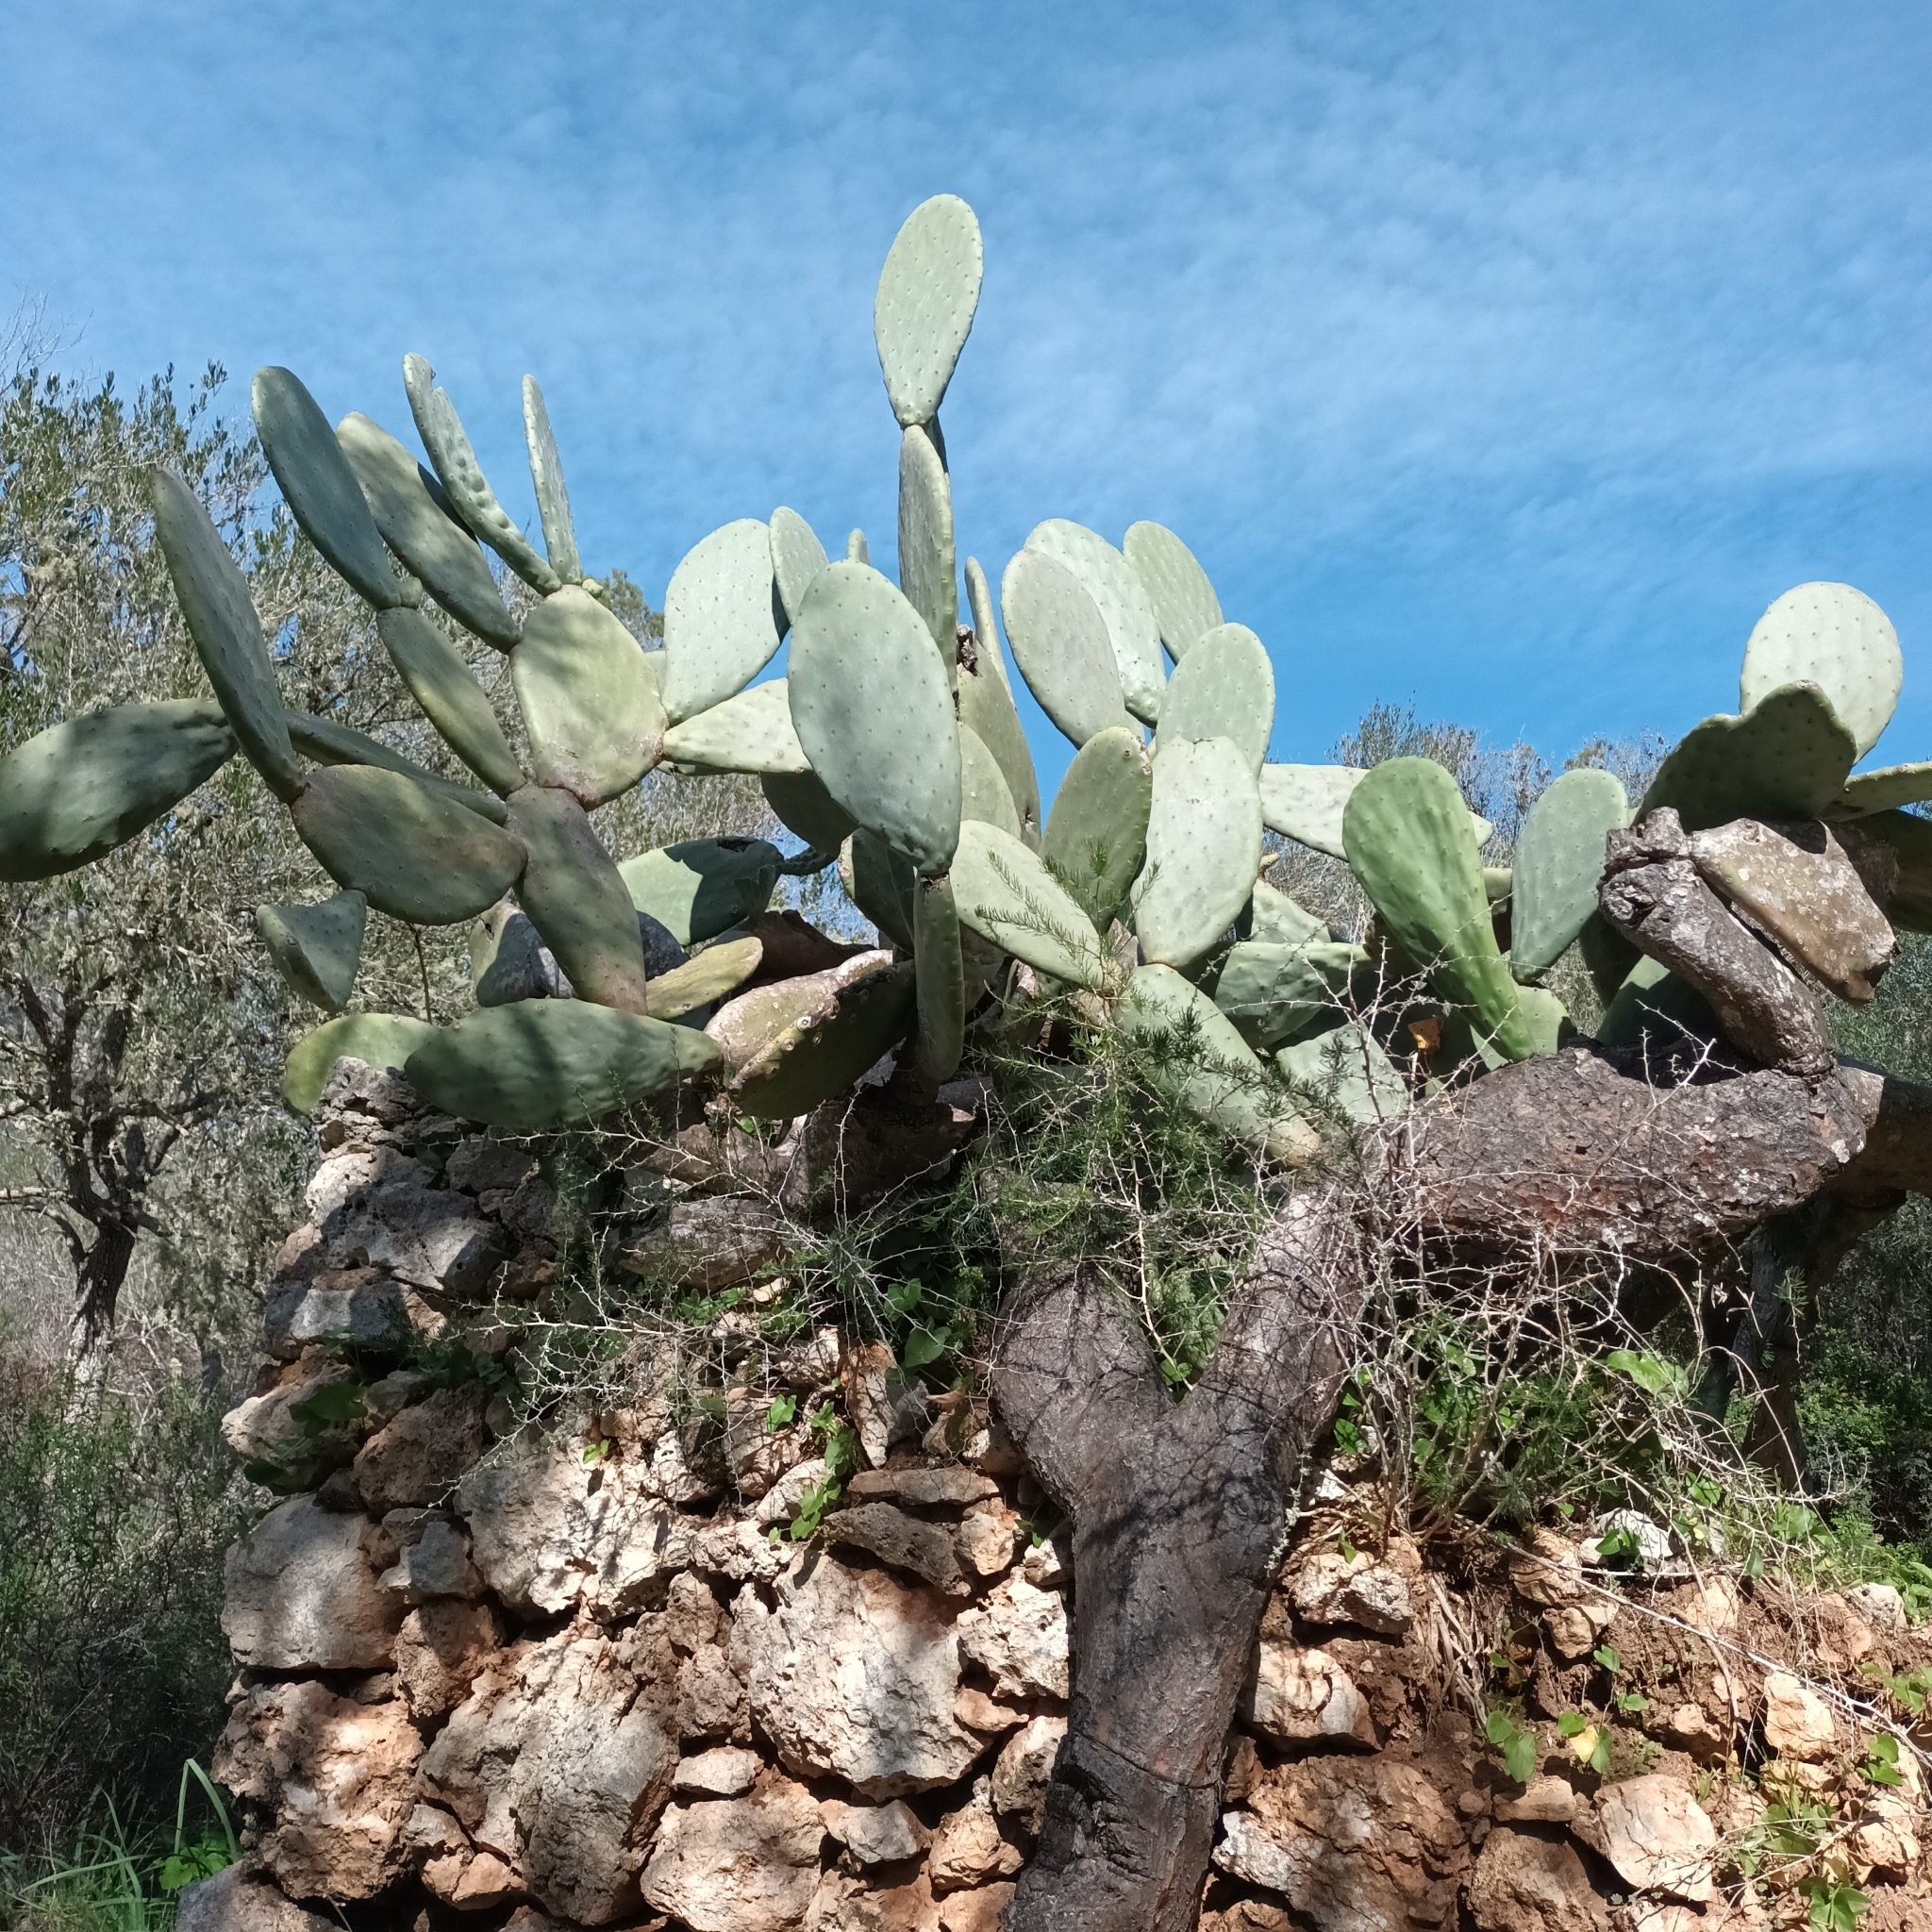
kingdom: Plantae
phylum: Tracheophyta
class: Magnoliopsida
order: Caryophyllales
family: Cactaceae
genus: Opuntia
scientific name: Opuntia ficus-indica
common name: Barbary fig
